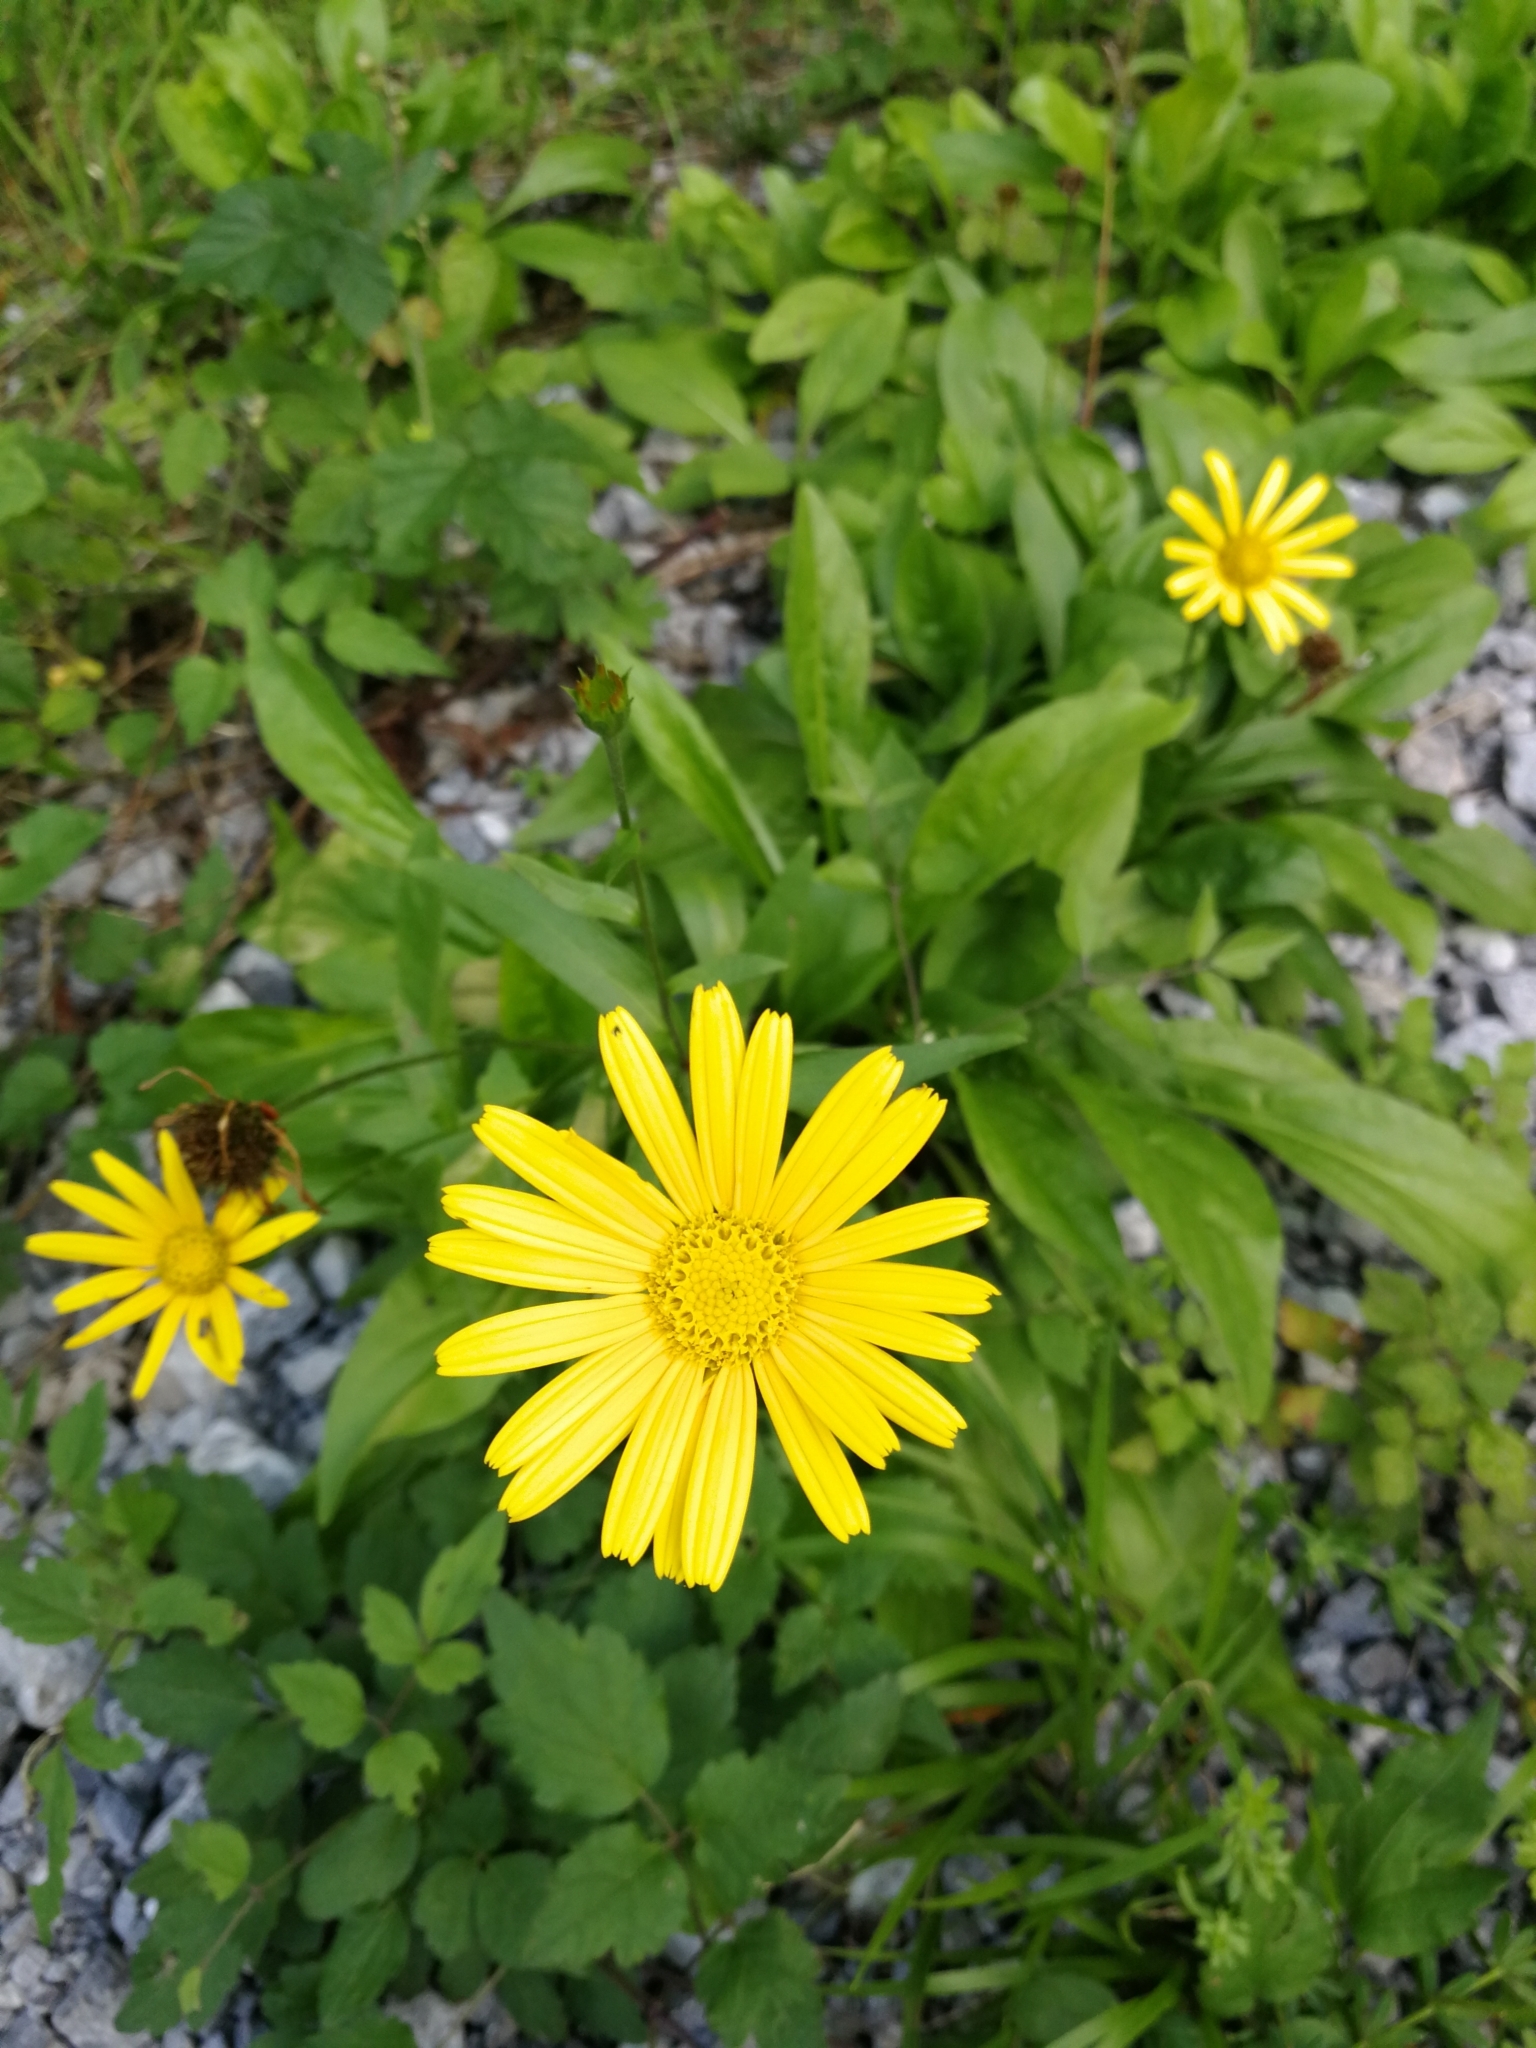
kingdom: Plantae
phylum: Tracheophyta
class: Magnoliopsida
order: Asterales
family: Asteraceae
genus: Buphthalmum
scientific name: Buphthalmum salicifolium
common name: Willow-leaved yellow-oxeye
